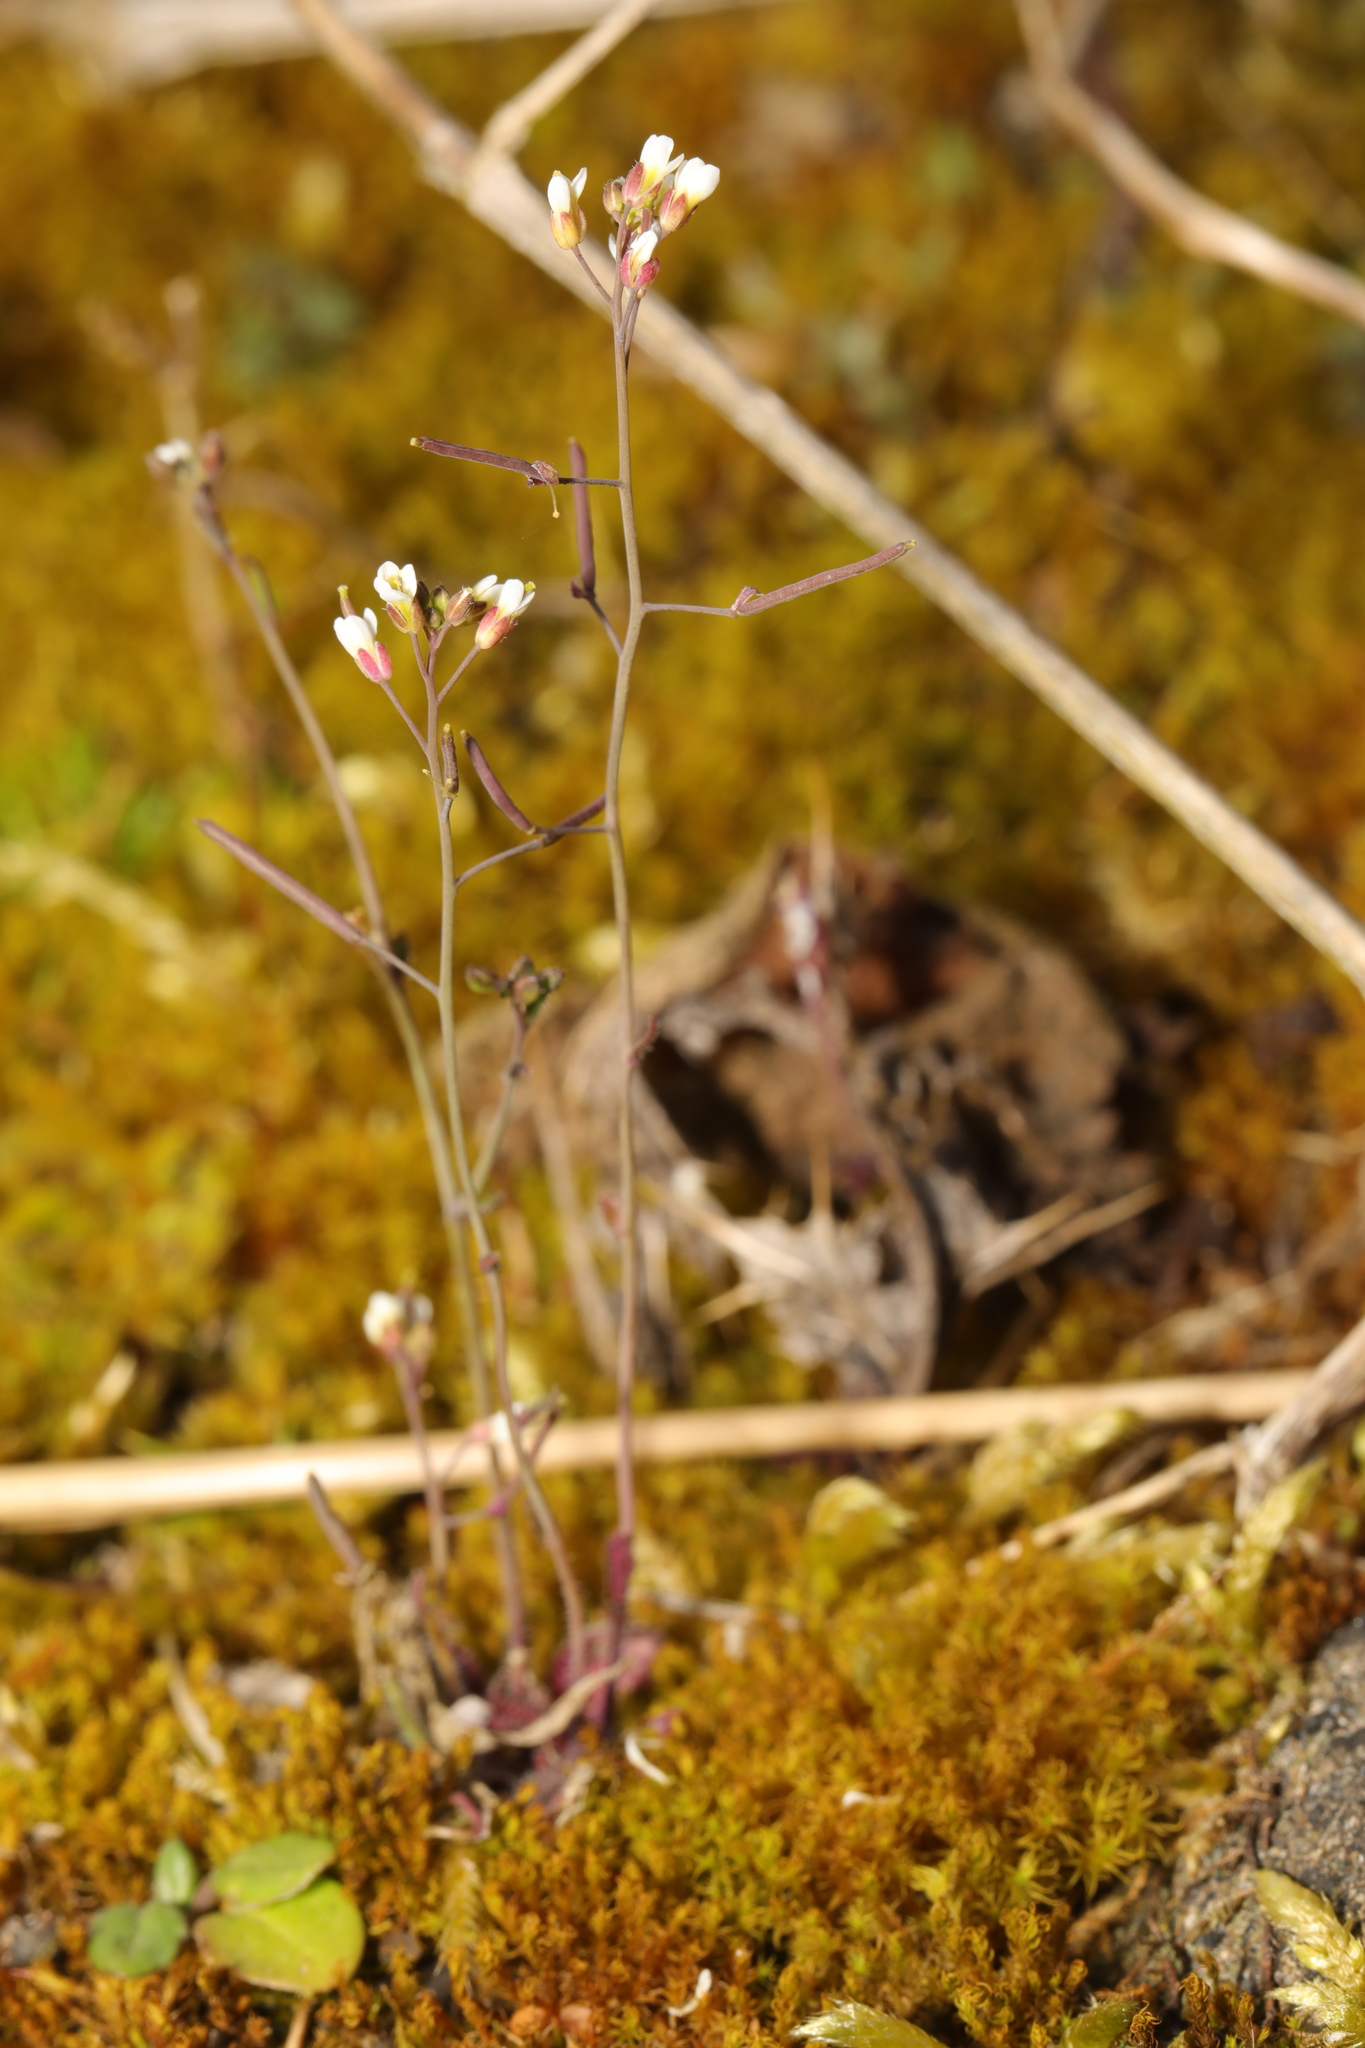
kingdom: Plantae
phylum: Tracheophyta
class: Magnoliopsida
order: Brassicales
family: Brassicaceae
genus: Arabidopsis
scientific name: Arabidopsis thaliana
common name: Thale cress
